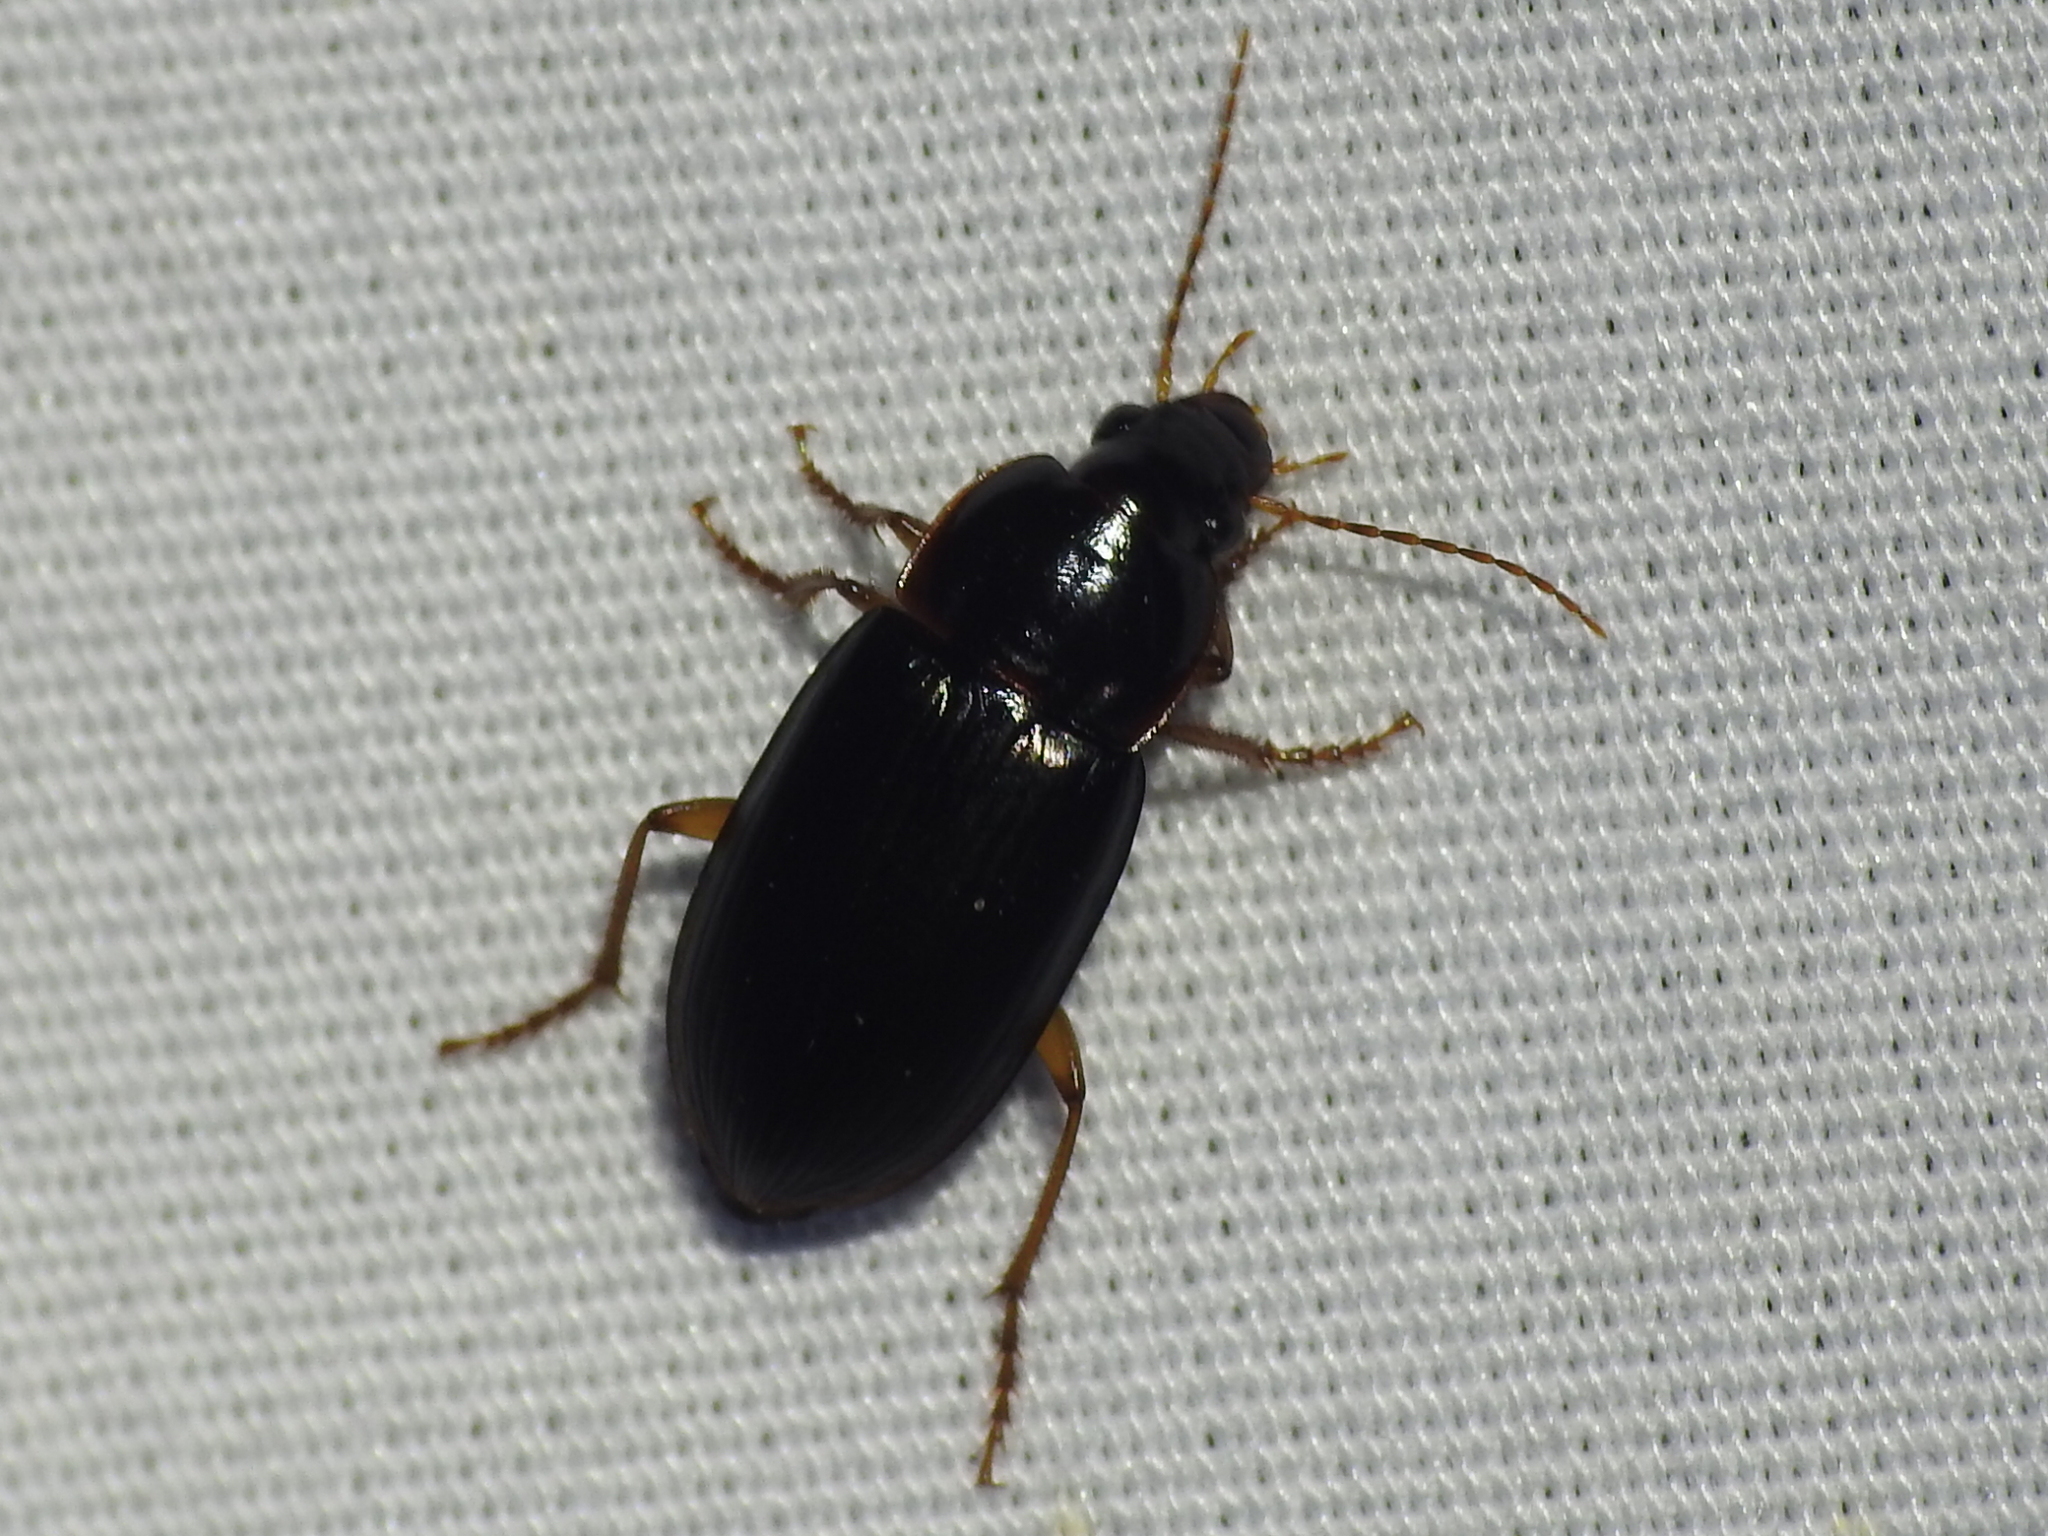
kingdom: Animalia
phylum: Arthropoda
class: Insecta
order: Coleoptera
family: Carabidae
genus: Notiobia
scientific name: Notiobia terminata
